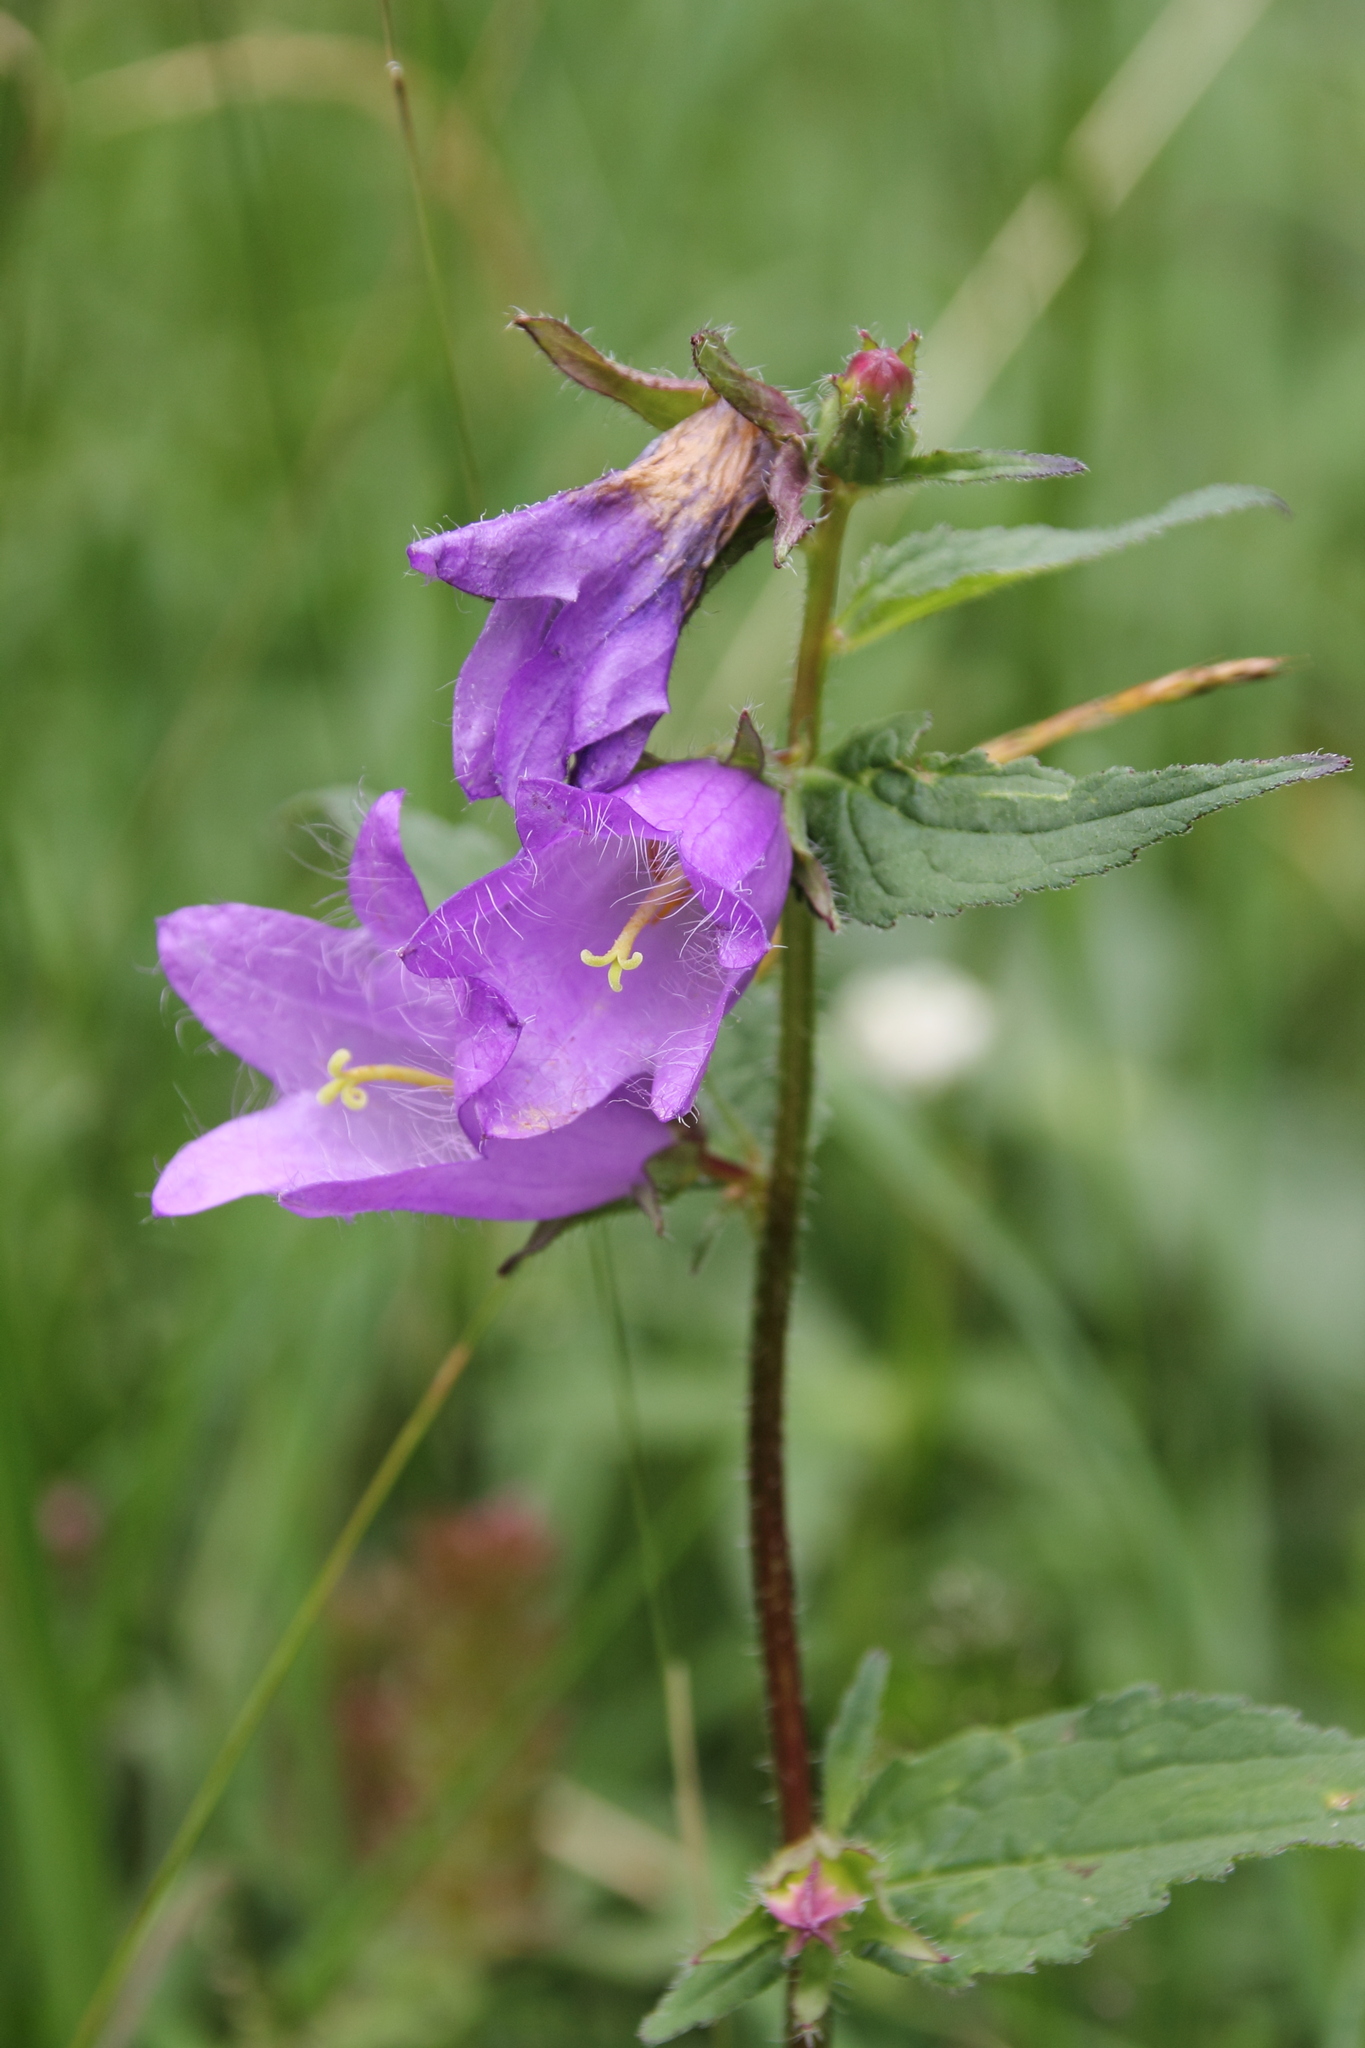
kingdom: Plantae
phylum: Tracheophyta
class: Magnoliopsida
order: Asterales
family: Campanulaceae
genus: Campanula
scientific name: Campanula trachelium
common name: Nettle-leaved bellflower
